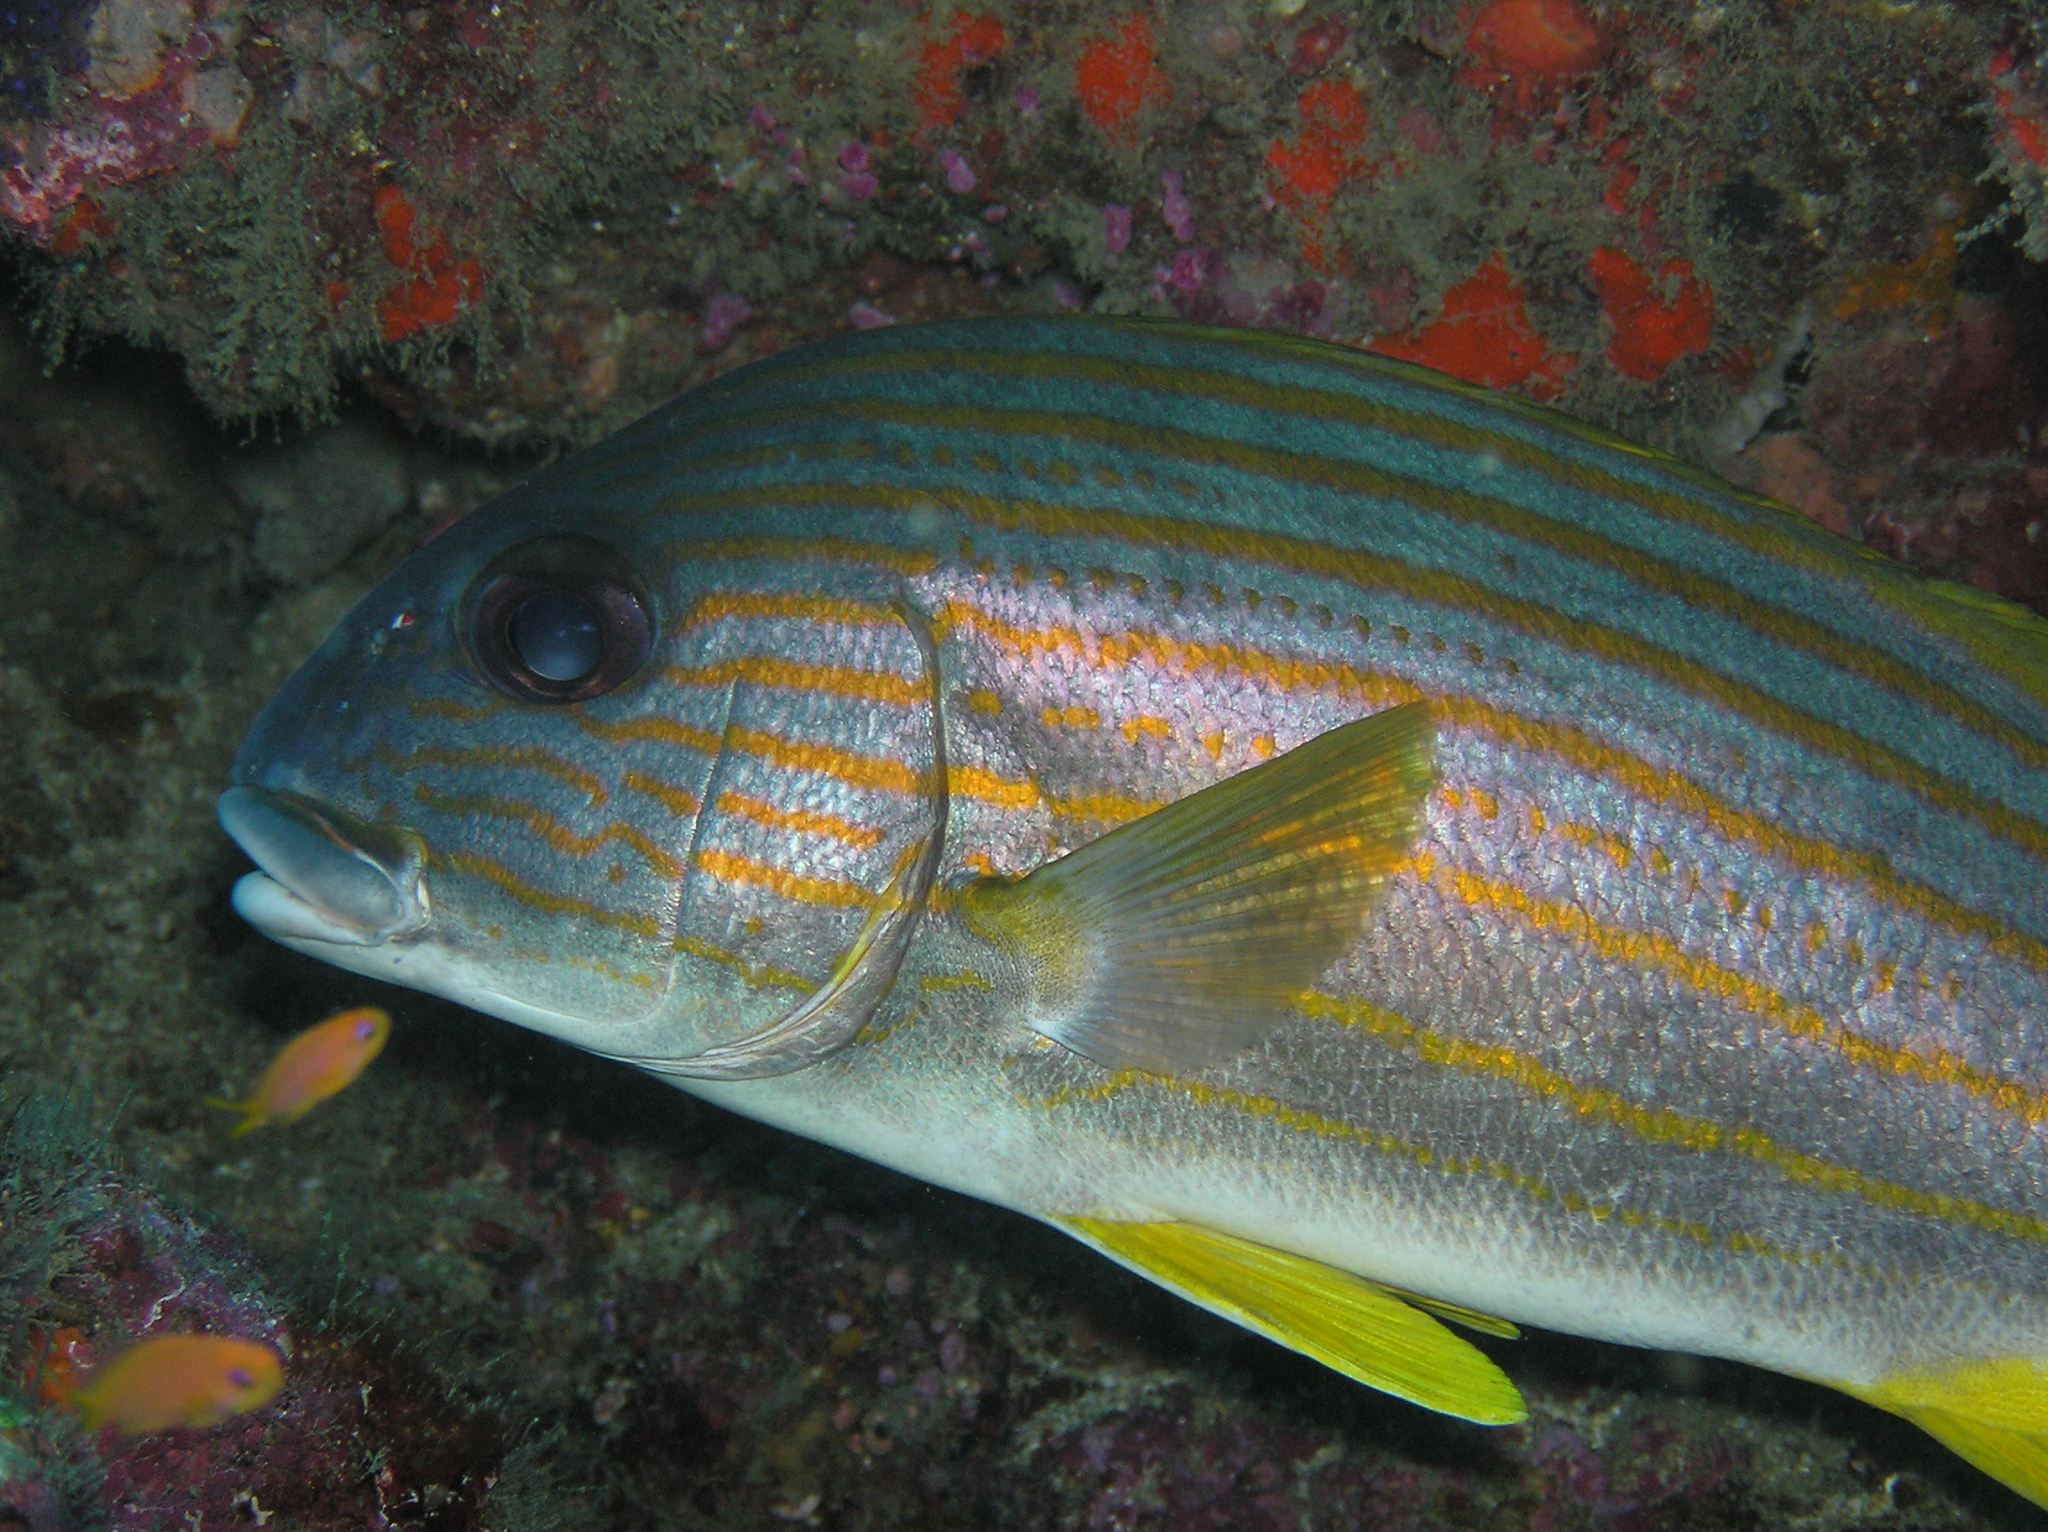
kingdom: Animalia
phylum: Chordata
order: Perciformes
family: Haemulidae
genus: Plectorhinchus
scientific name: Plectorhinchus chrysotaenia
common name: Celebes sweetlips
